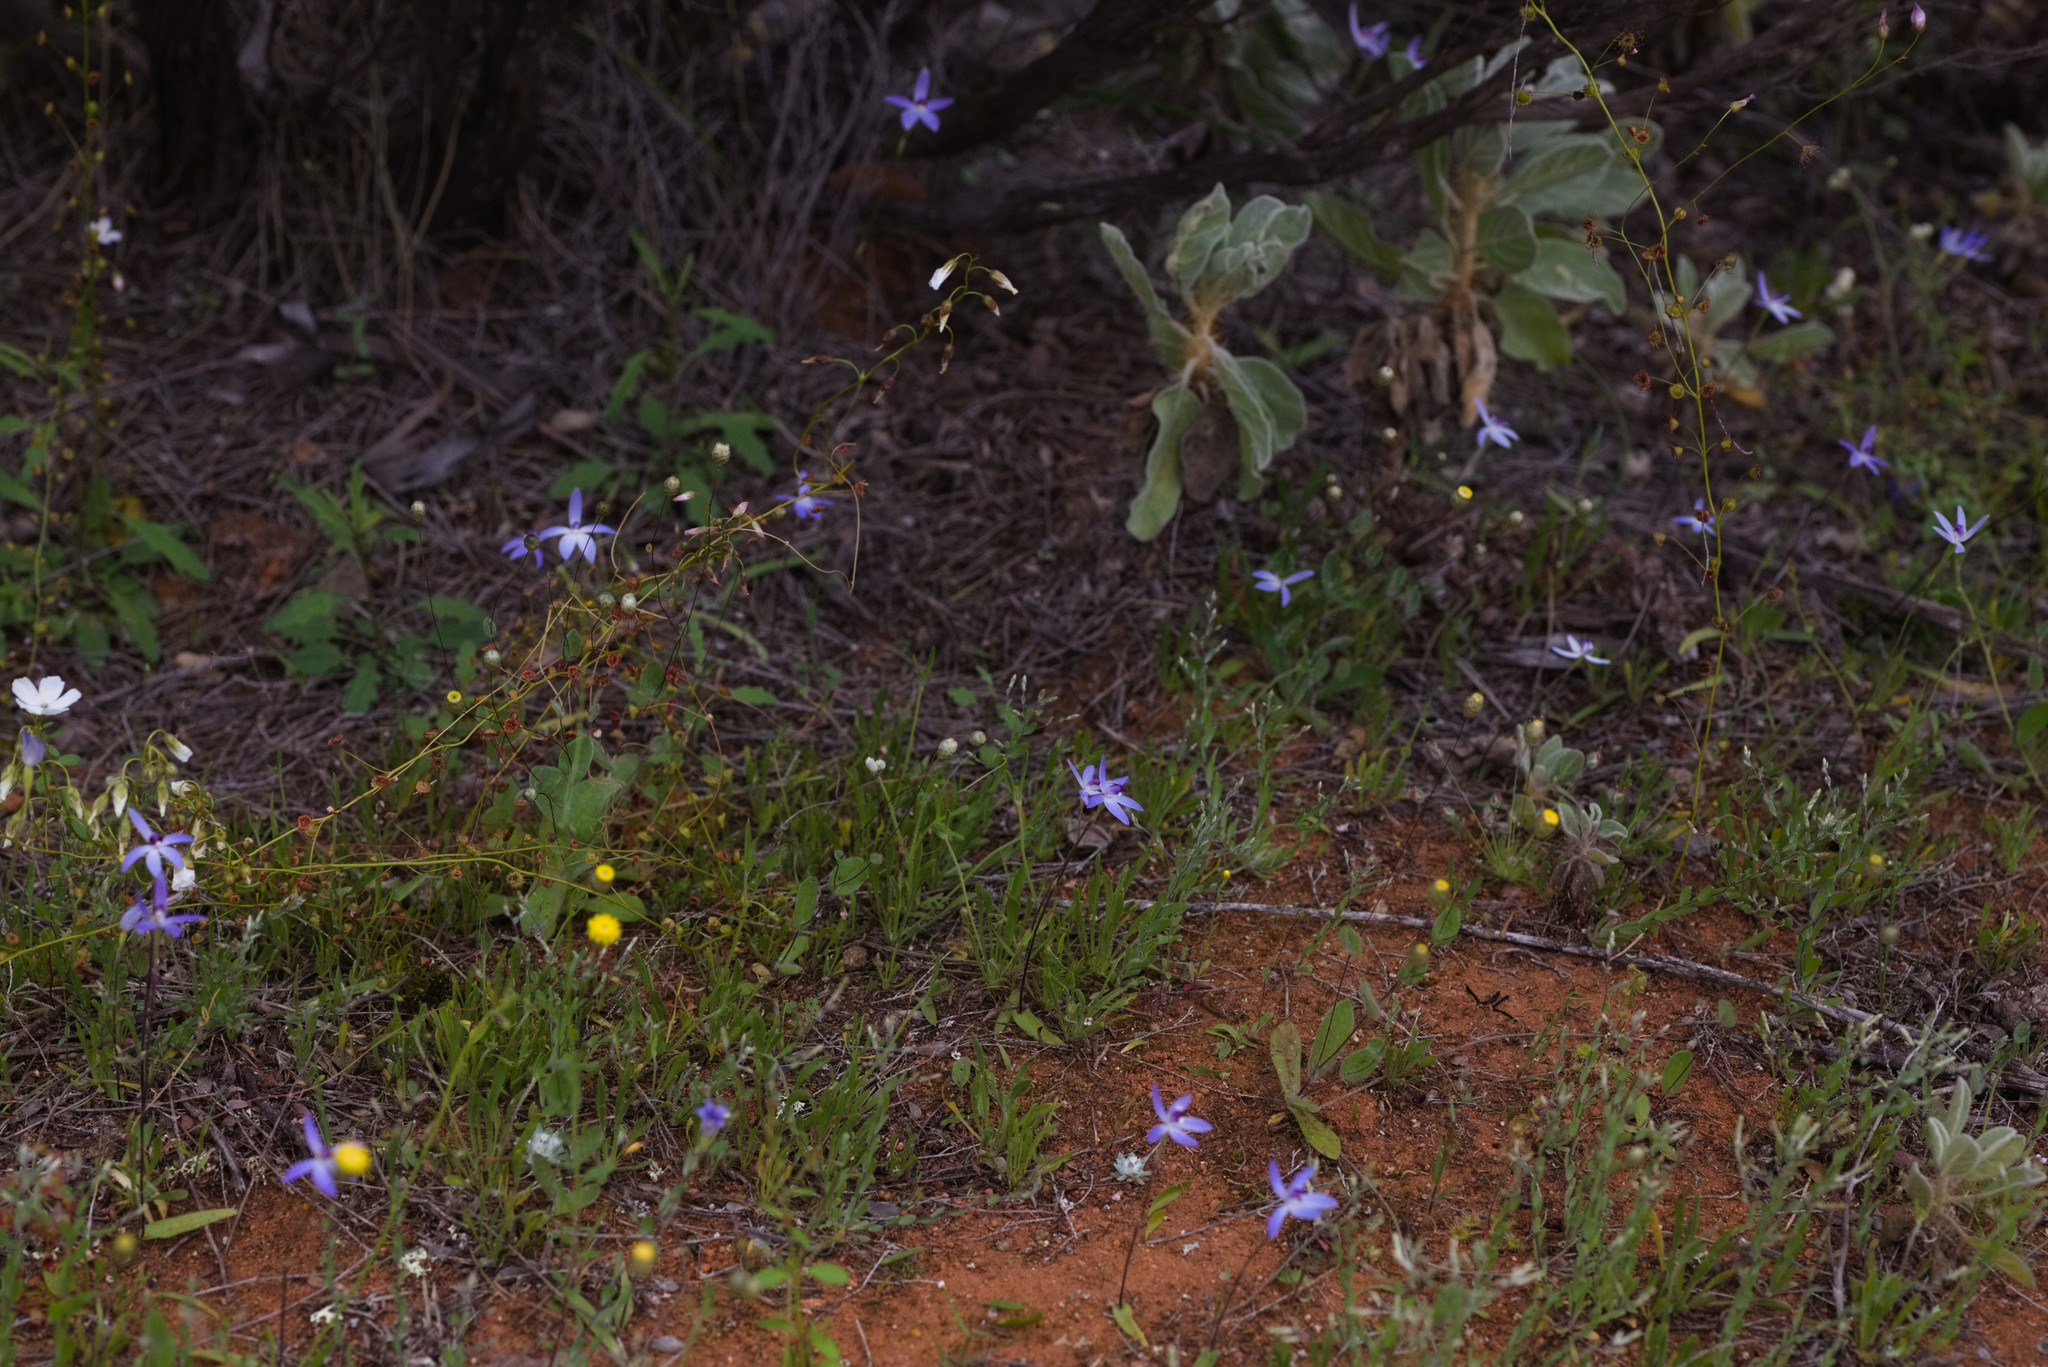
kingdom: Plantae
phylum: Tracheophyta
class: Magnoliopsida
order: Caryophyllales
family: Droseraceae
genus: Drosera
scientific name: Drosera stricticaulis
